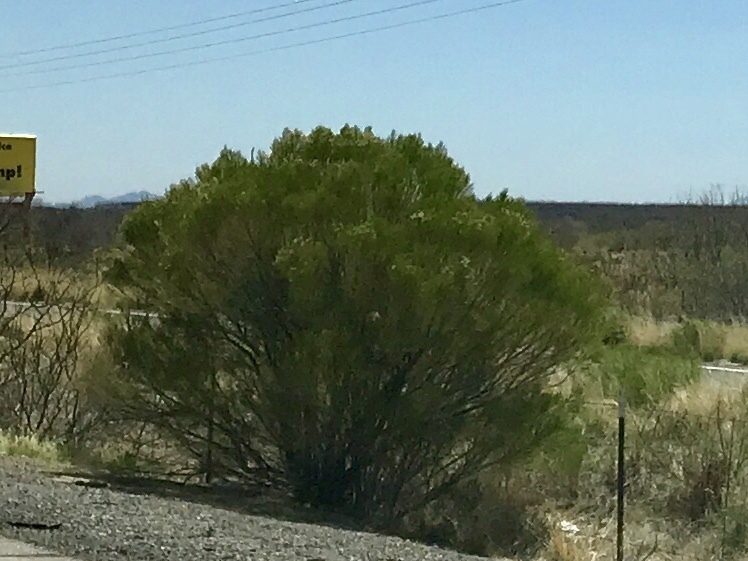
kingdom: Plantae
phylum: Tracheophyta
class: Magnoliopsida
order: Asterales
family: Asteraceae
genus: Baccharis
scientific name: Baccharis sarothroides
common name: Desert-broom
